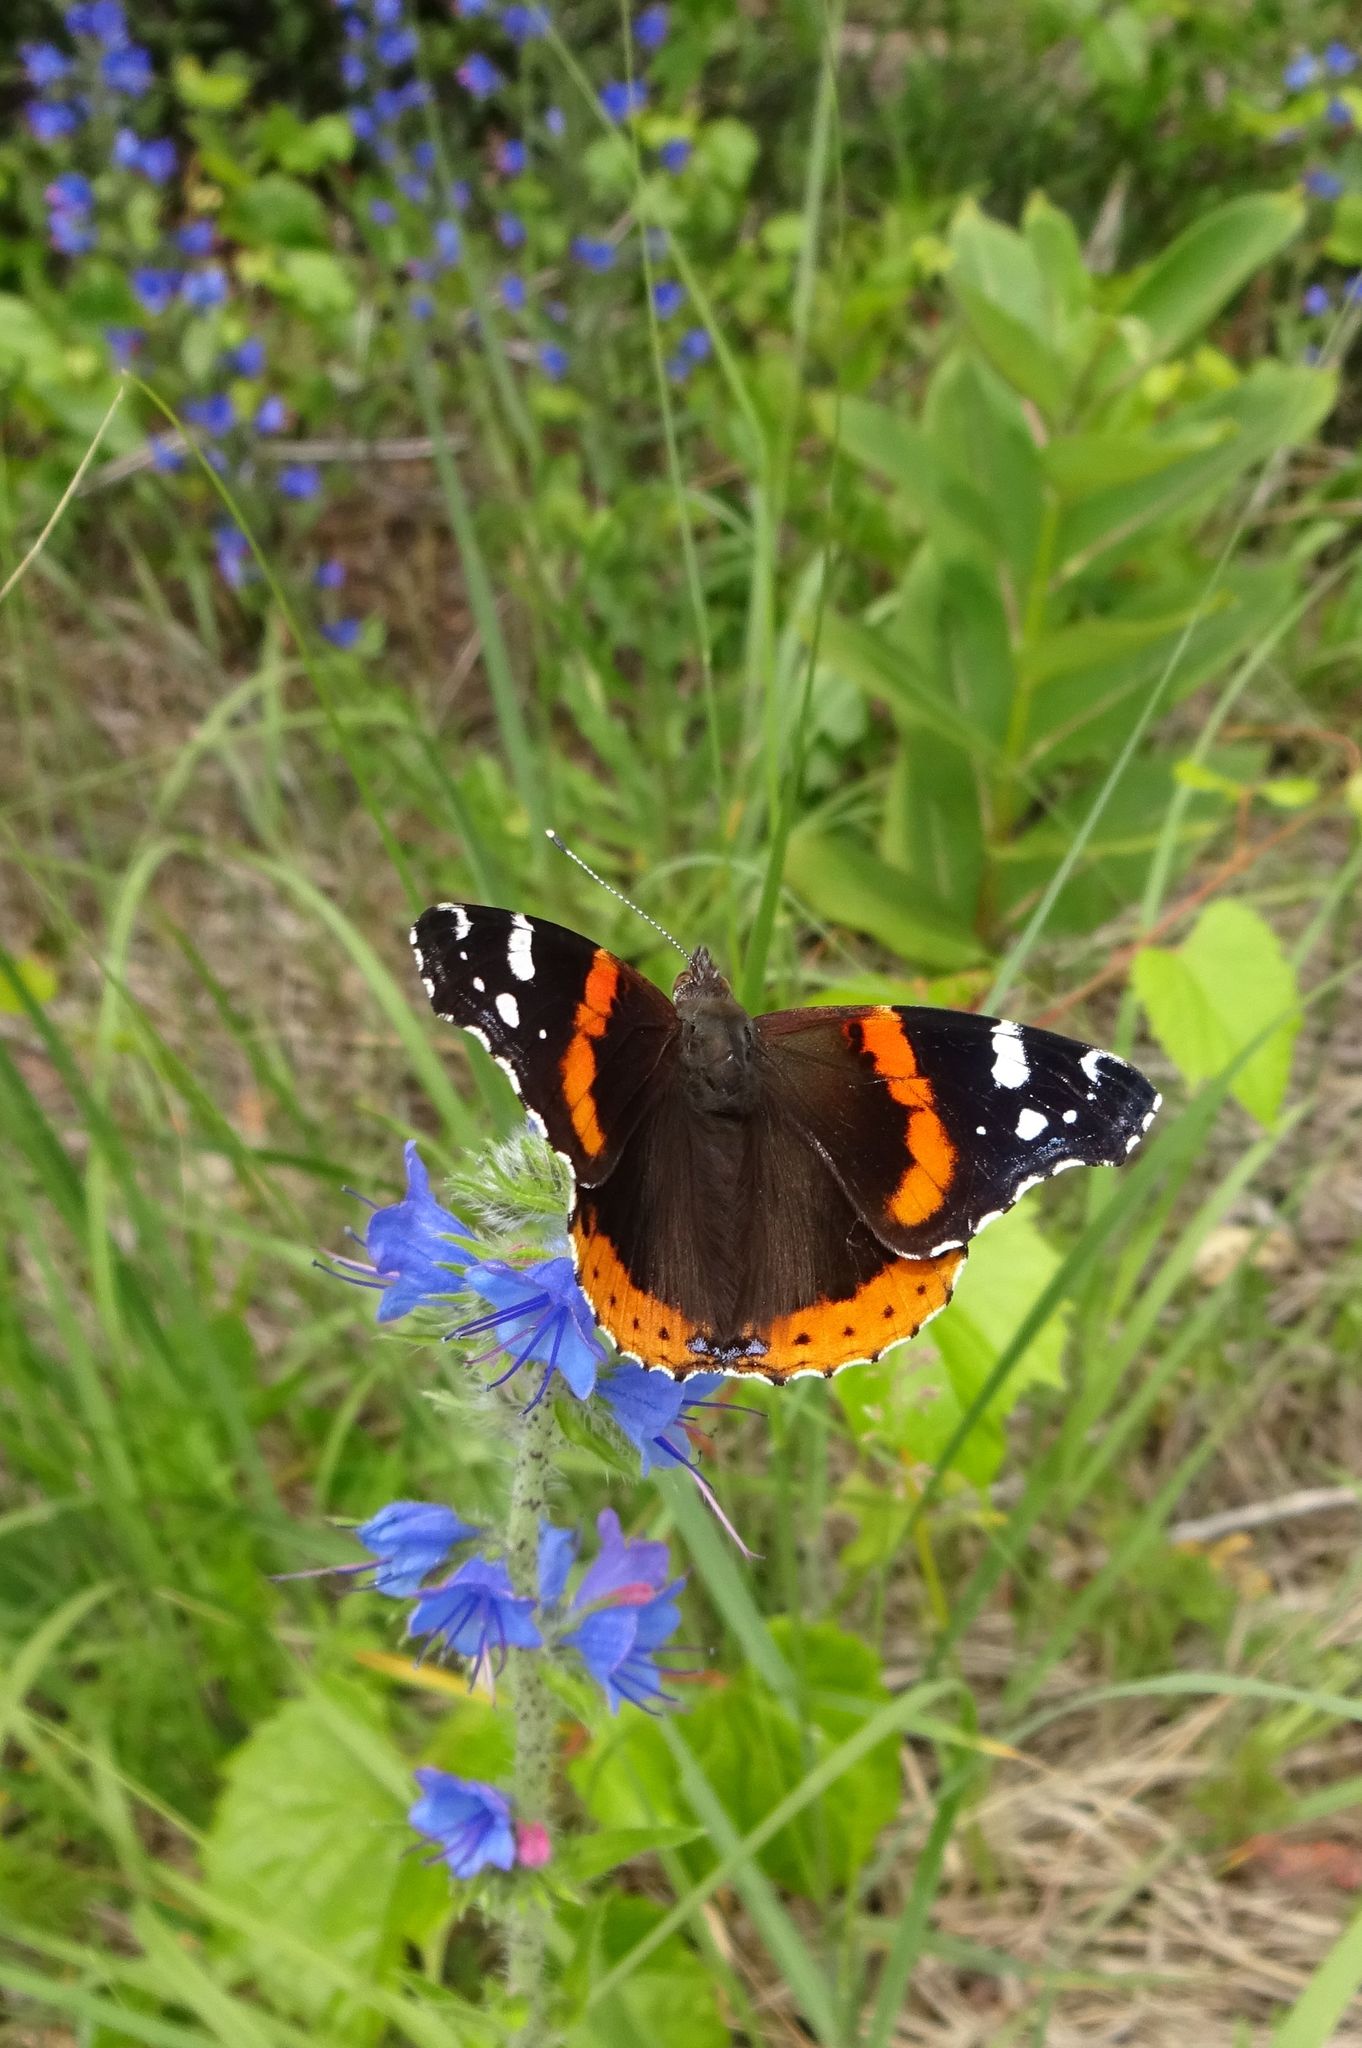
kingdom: Animalia
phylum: Arthropoda
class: Insecta
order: Lepidoptera
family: Nymphalidae
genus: Vanessa
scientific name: Vanessa atalanta
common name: Red admiral
